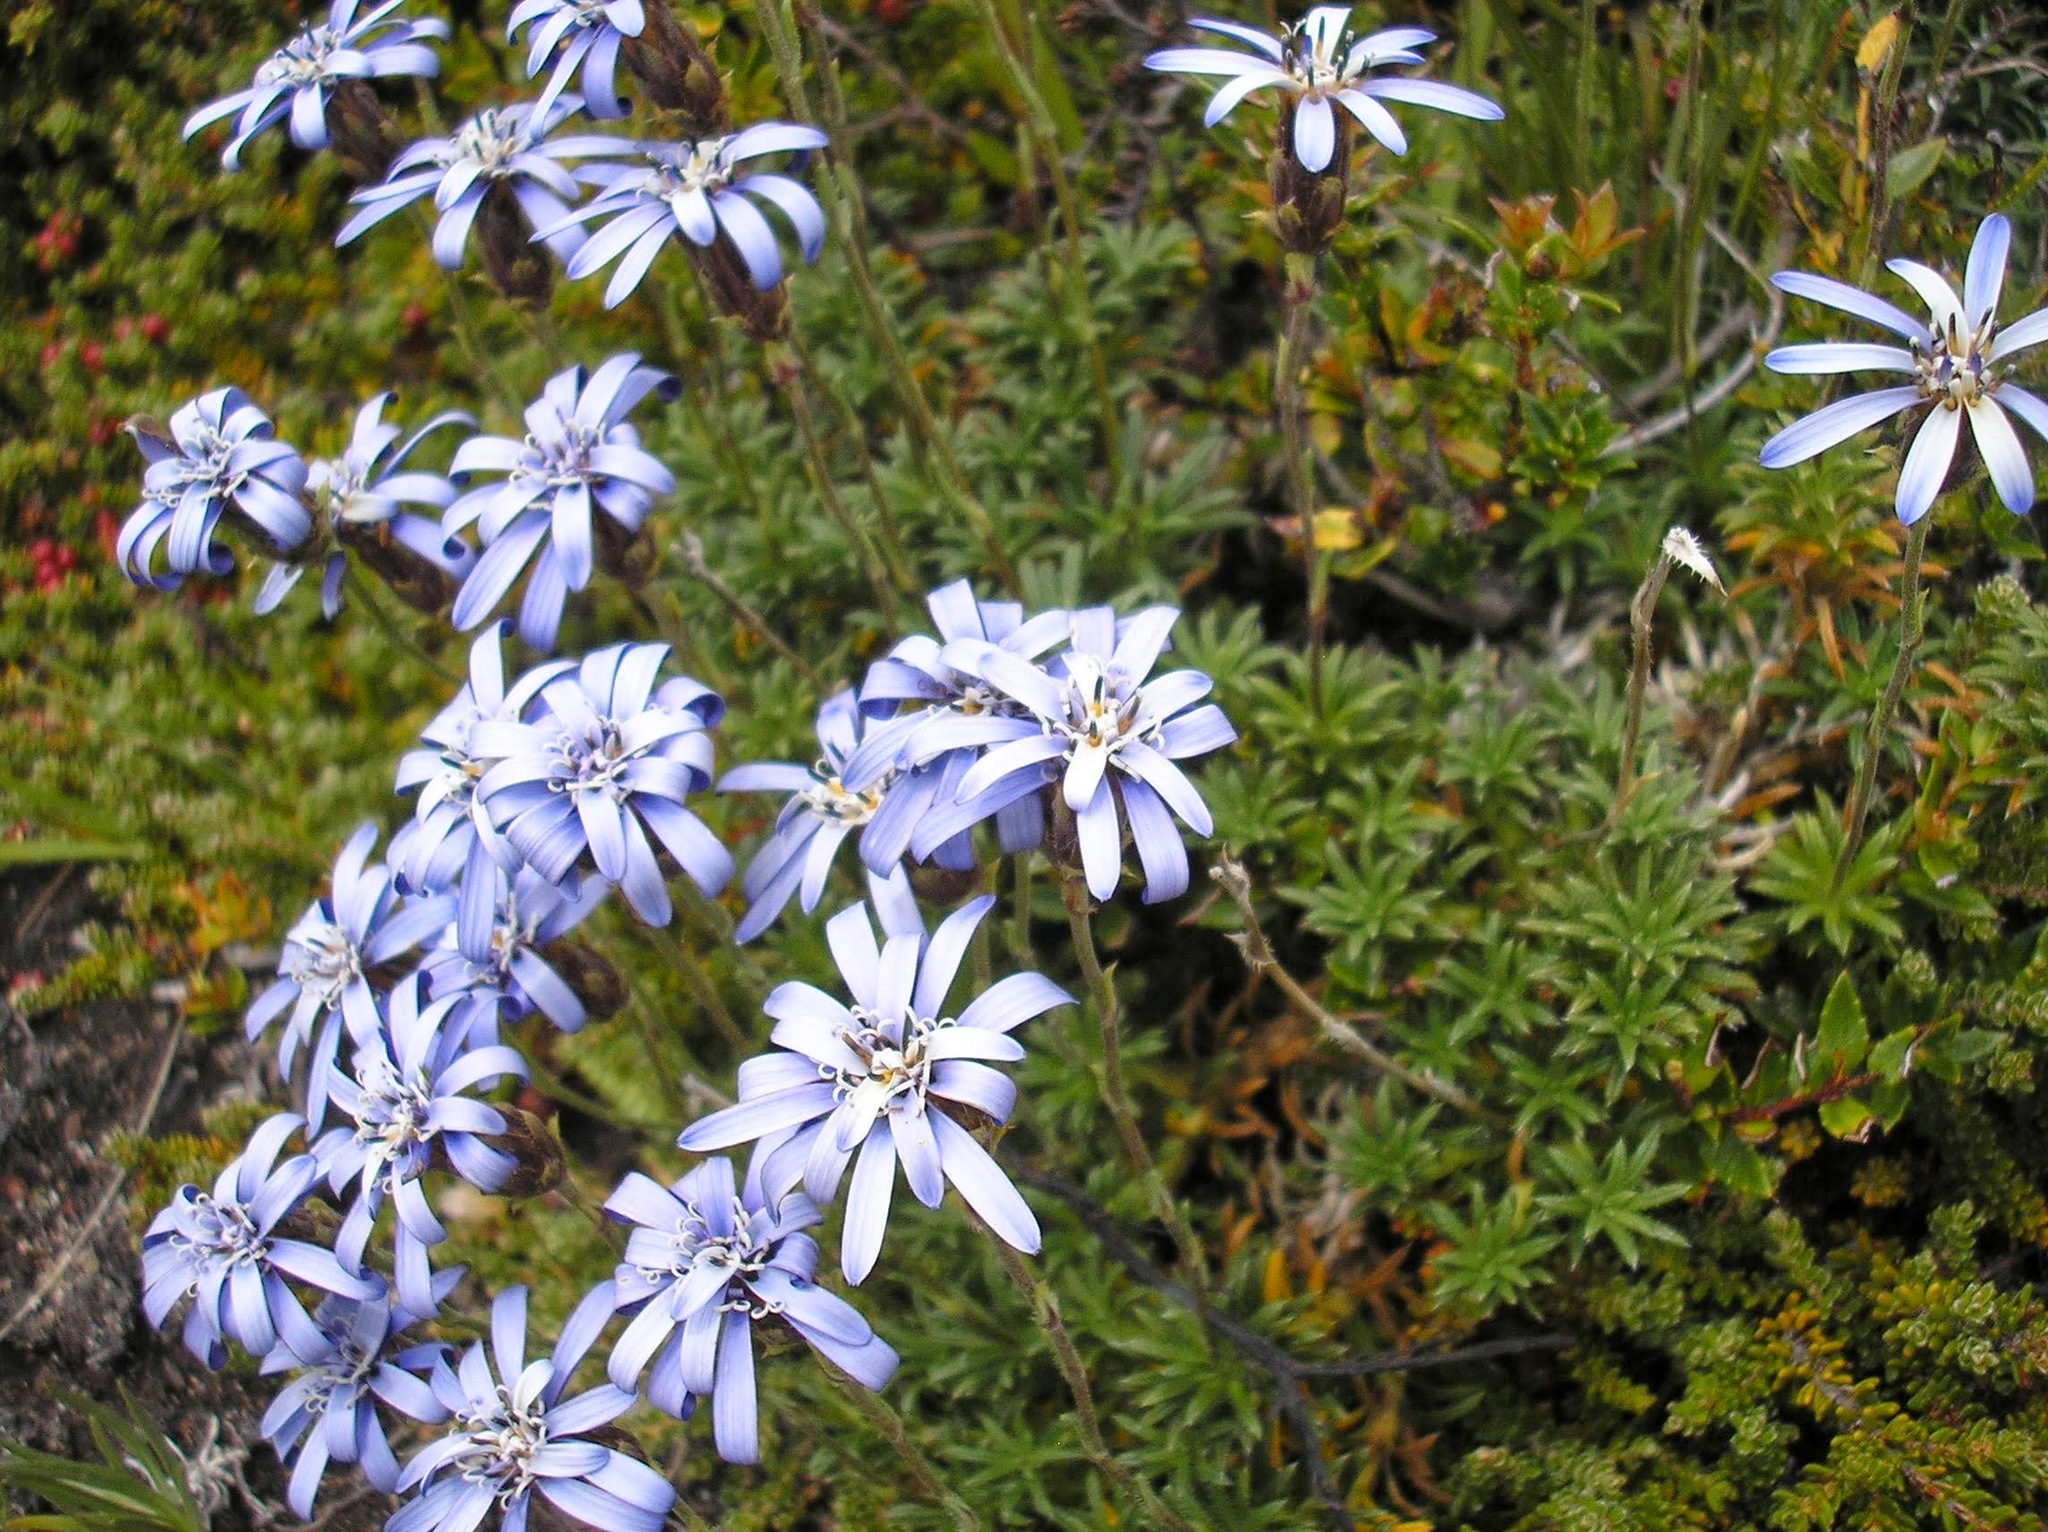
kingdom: Plantae
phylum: Tracheophyta
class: Magnoliopsida
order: Asterales
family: Asteraceae
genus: Perezia
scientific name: Perezia recurvata
